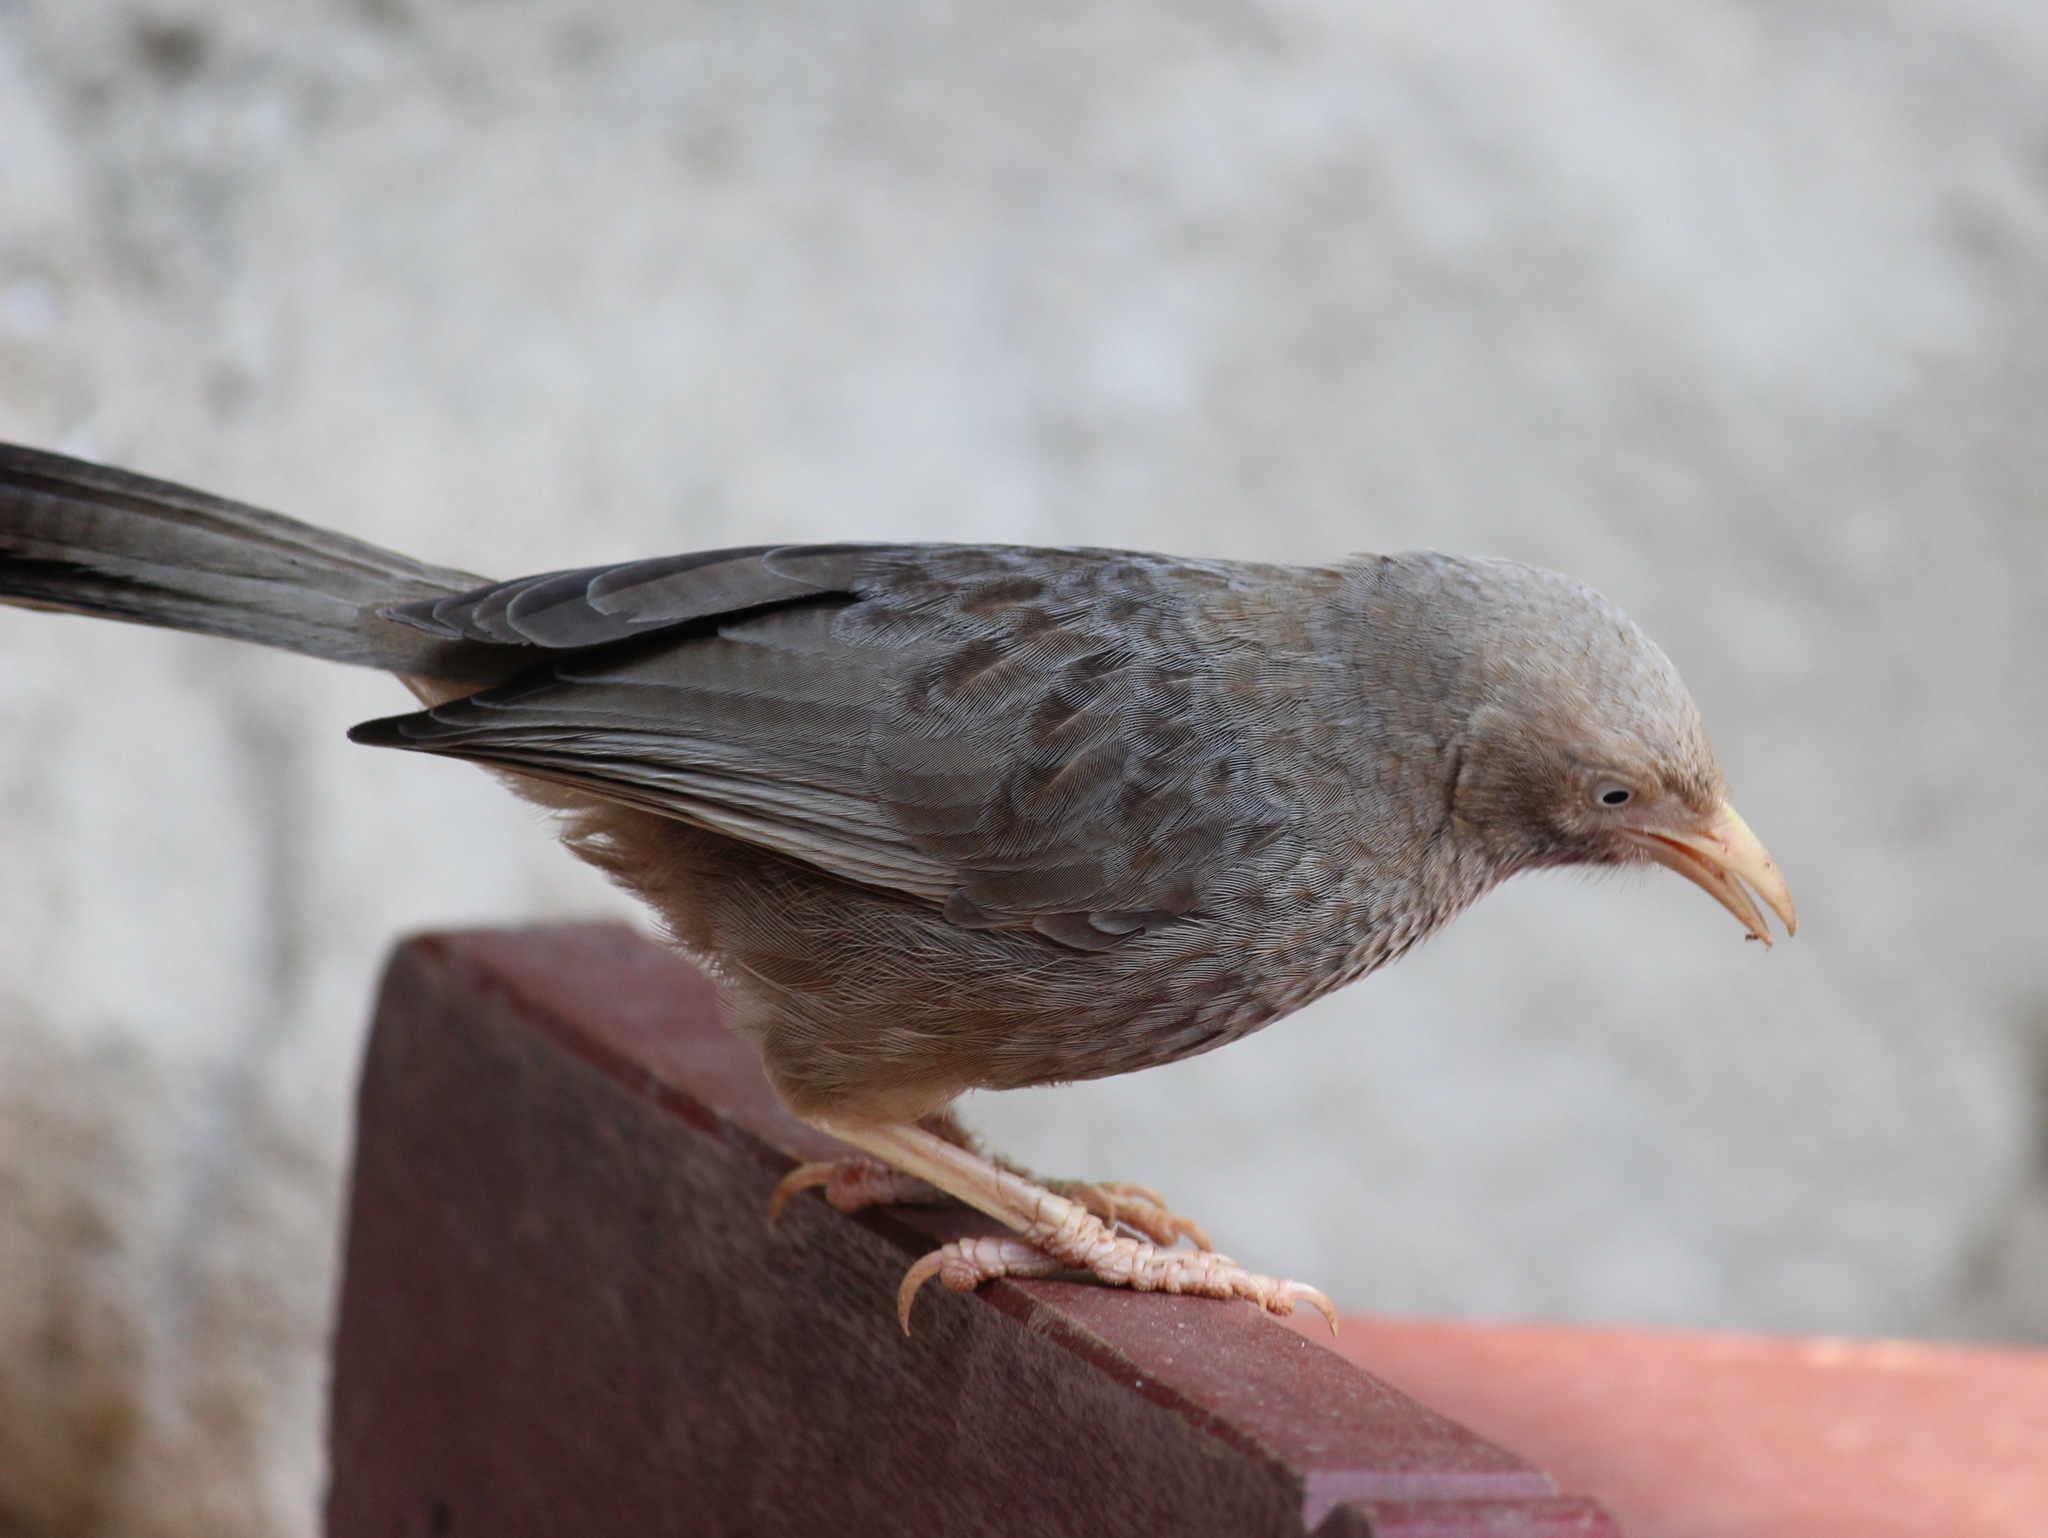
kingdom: Animalia
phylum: Chordata
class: Aves
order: Passeriformes
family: Leiothrichidae
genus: Turdoides
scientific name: Turdoides affinis
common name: Yellow-billed babbler
